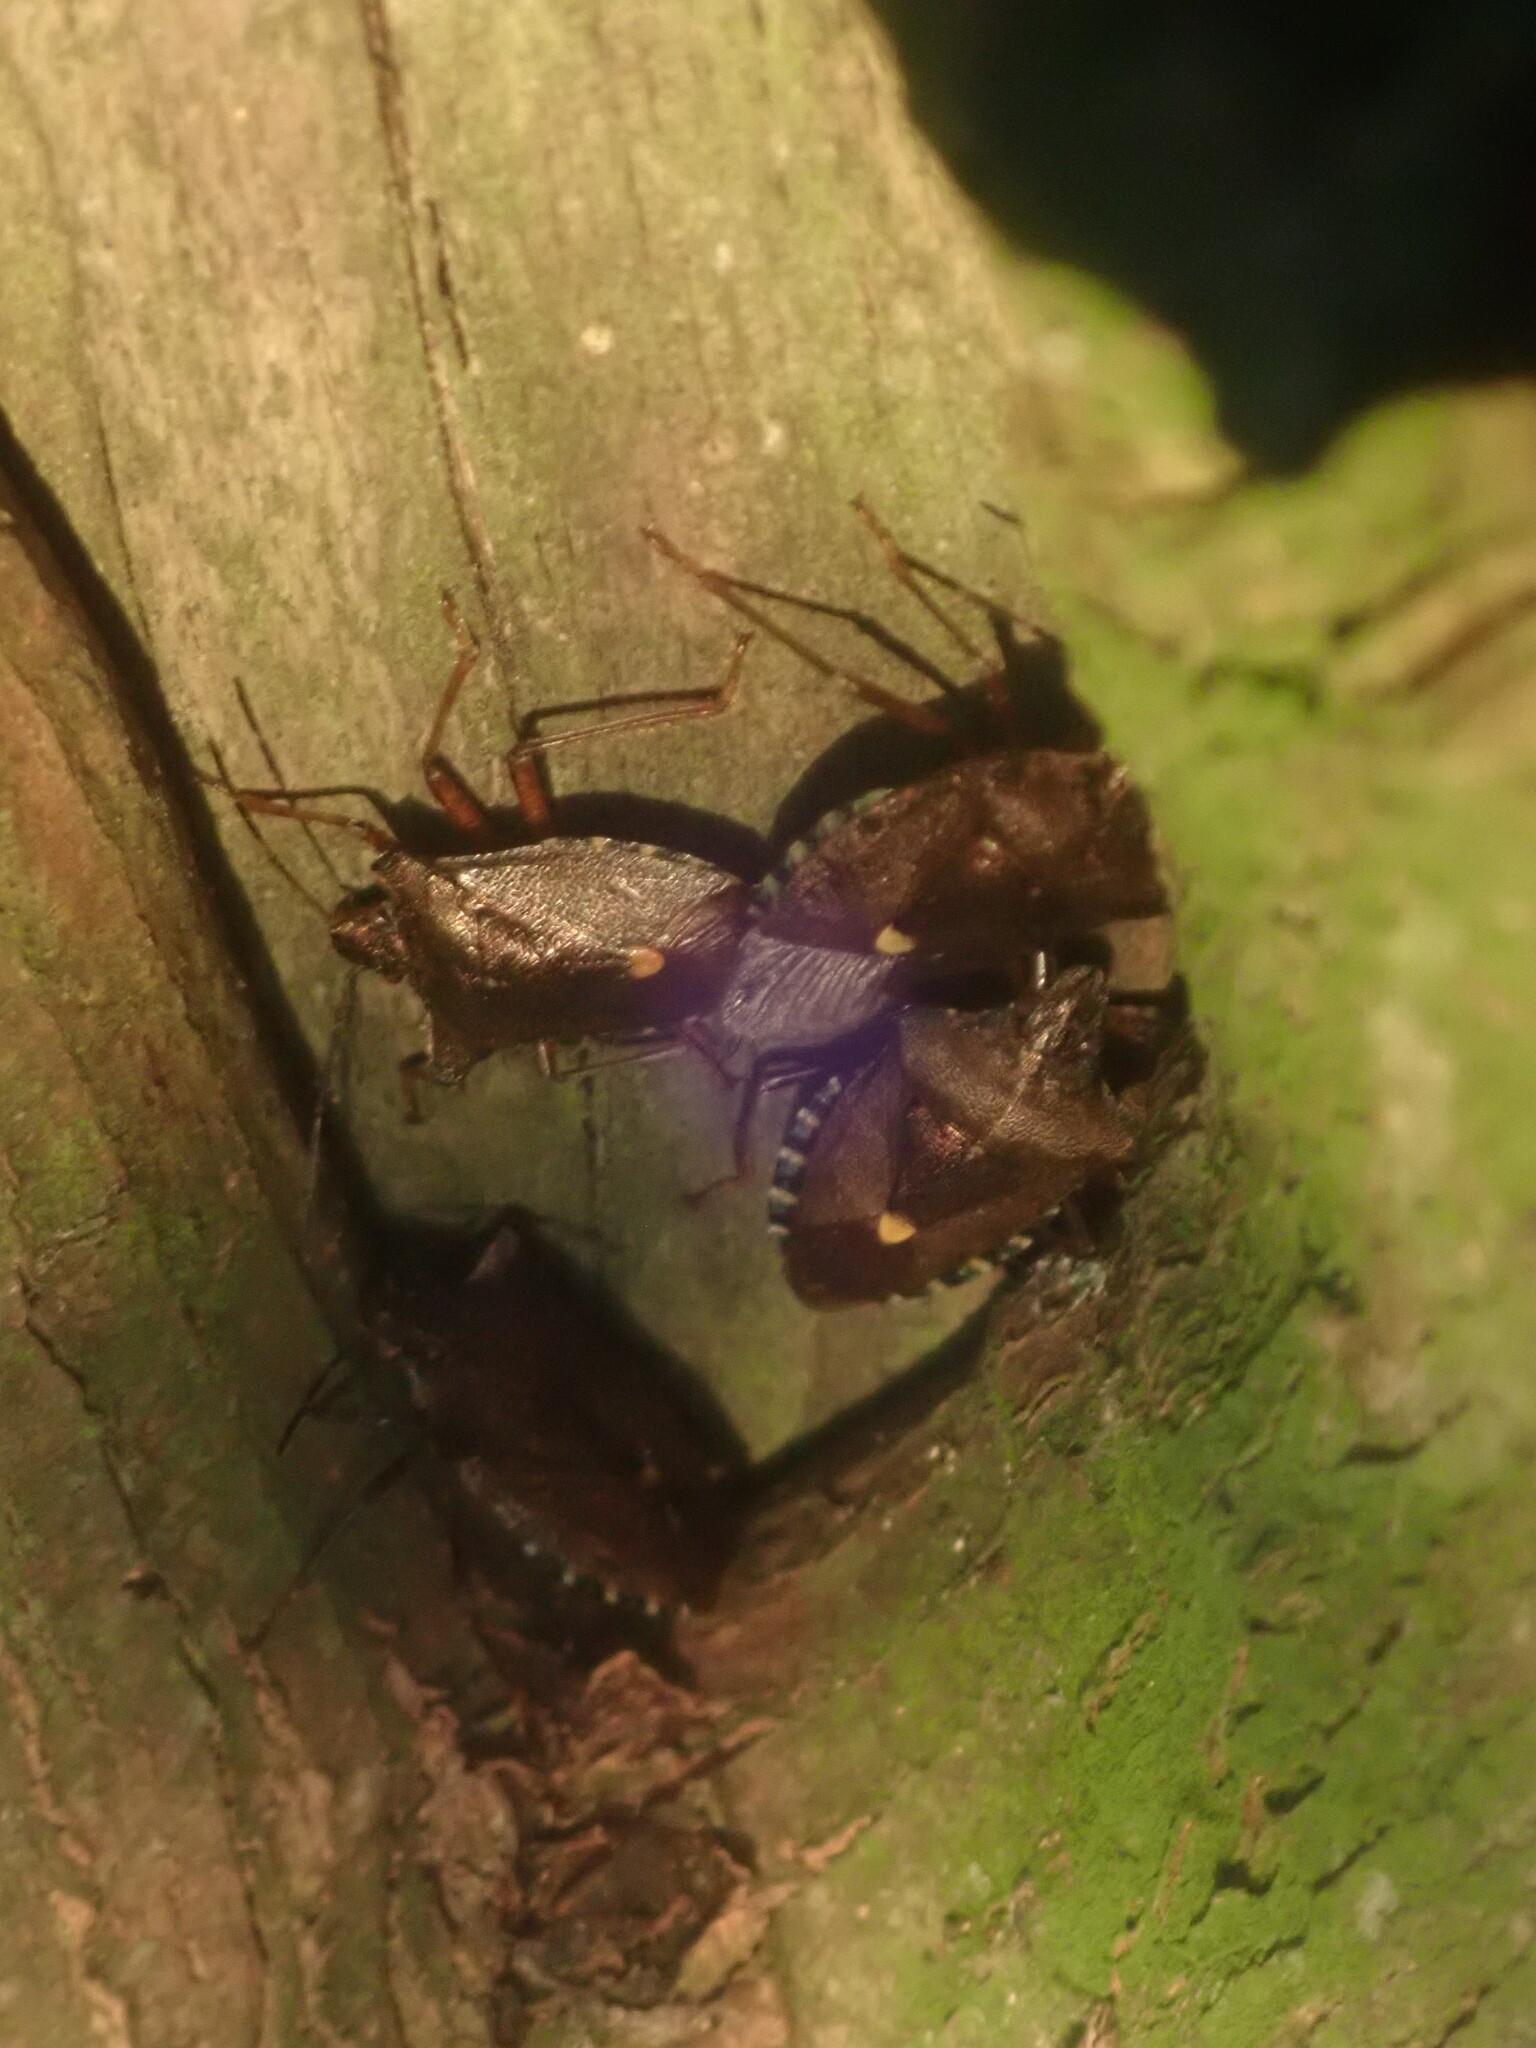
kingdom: Animalia
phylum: Arthropoda
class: Insecta
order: Hemiptera
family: Pentatomidae
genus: Pentatoma
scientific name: Pentatoma rufipes
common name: Forest bug
